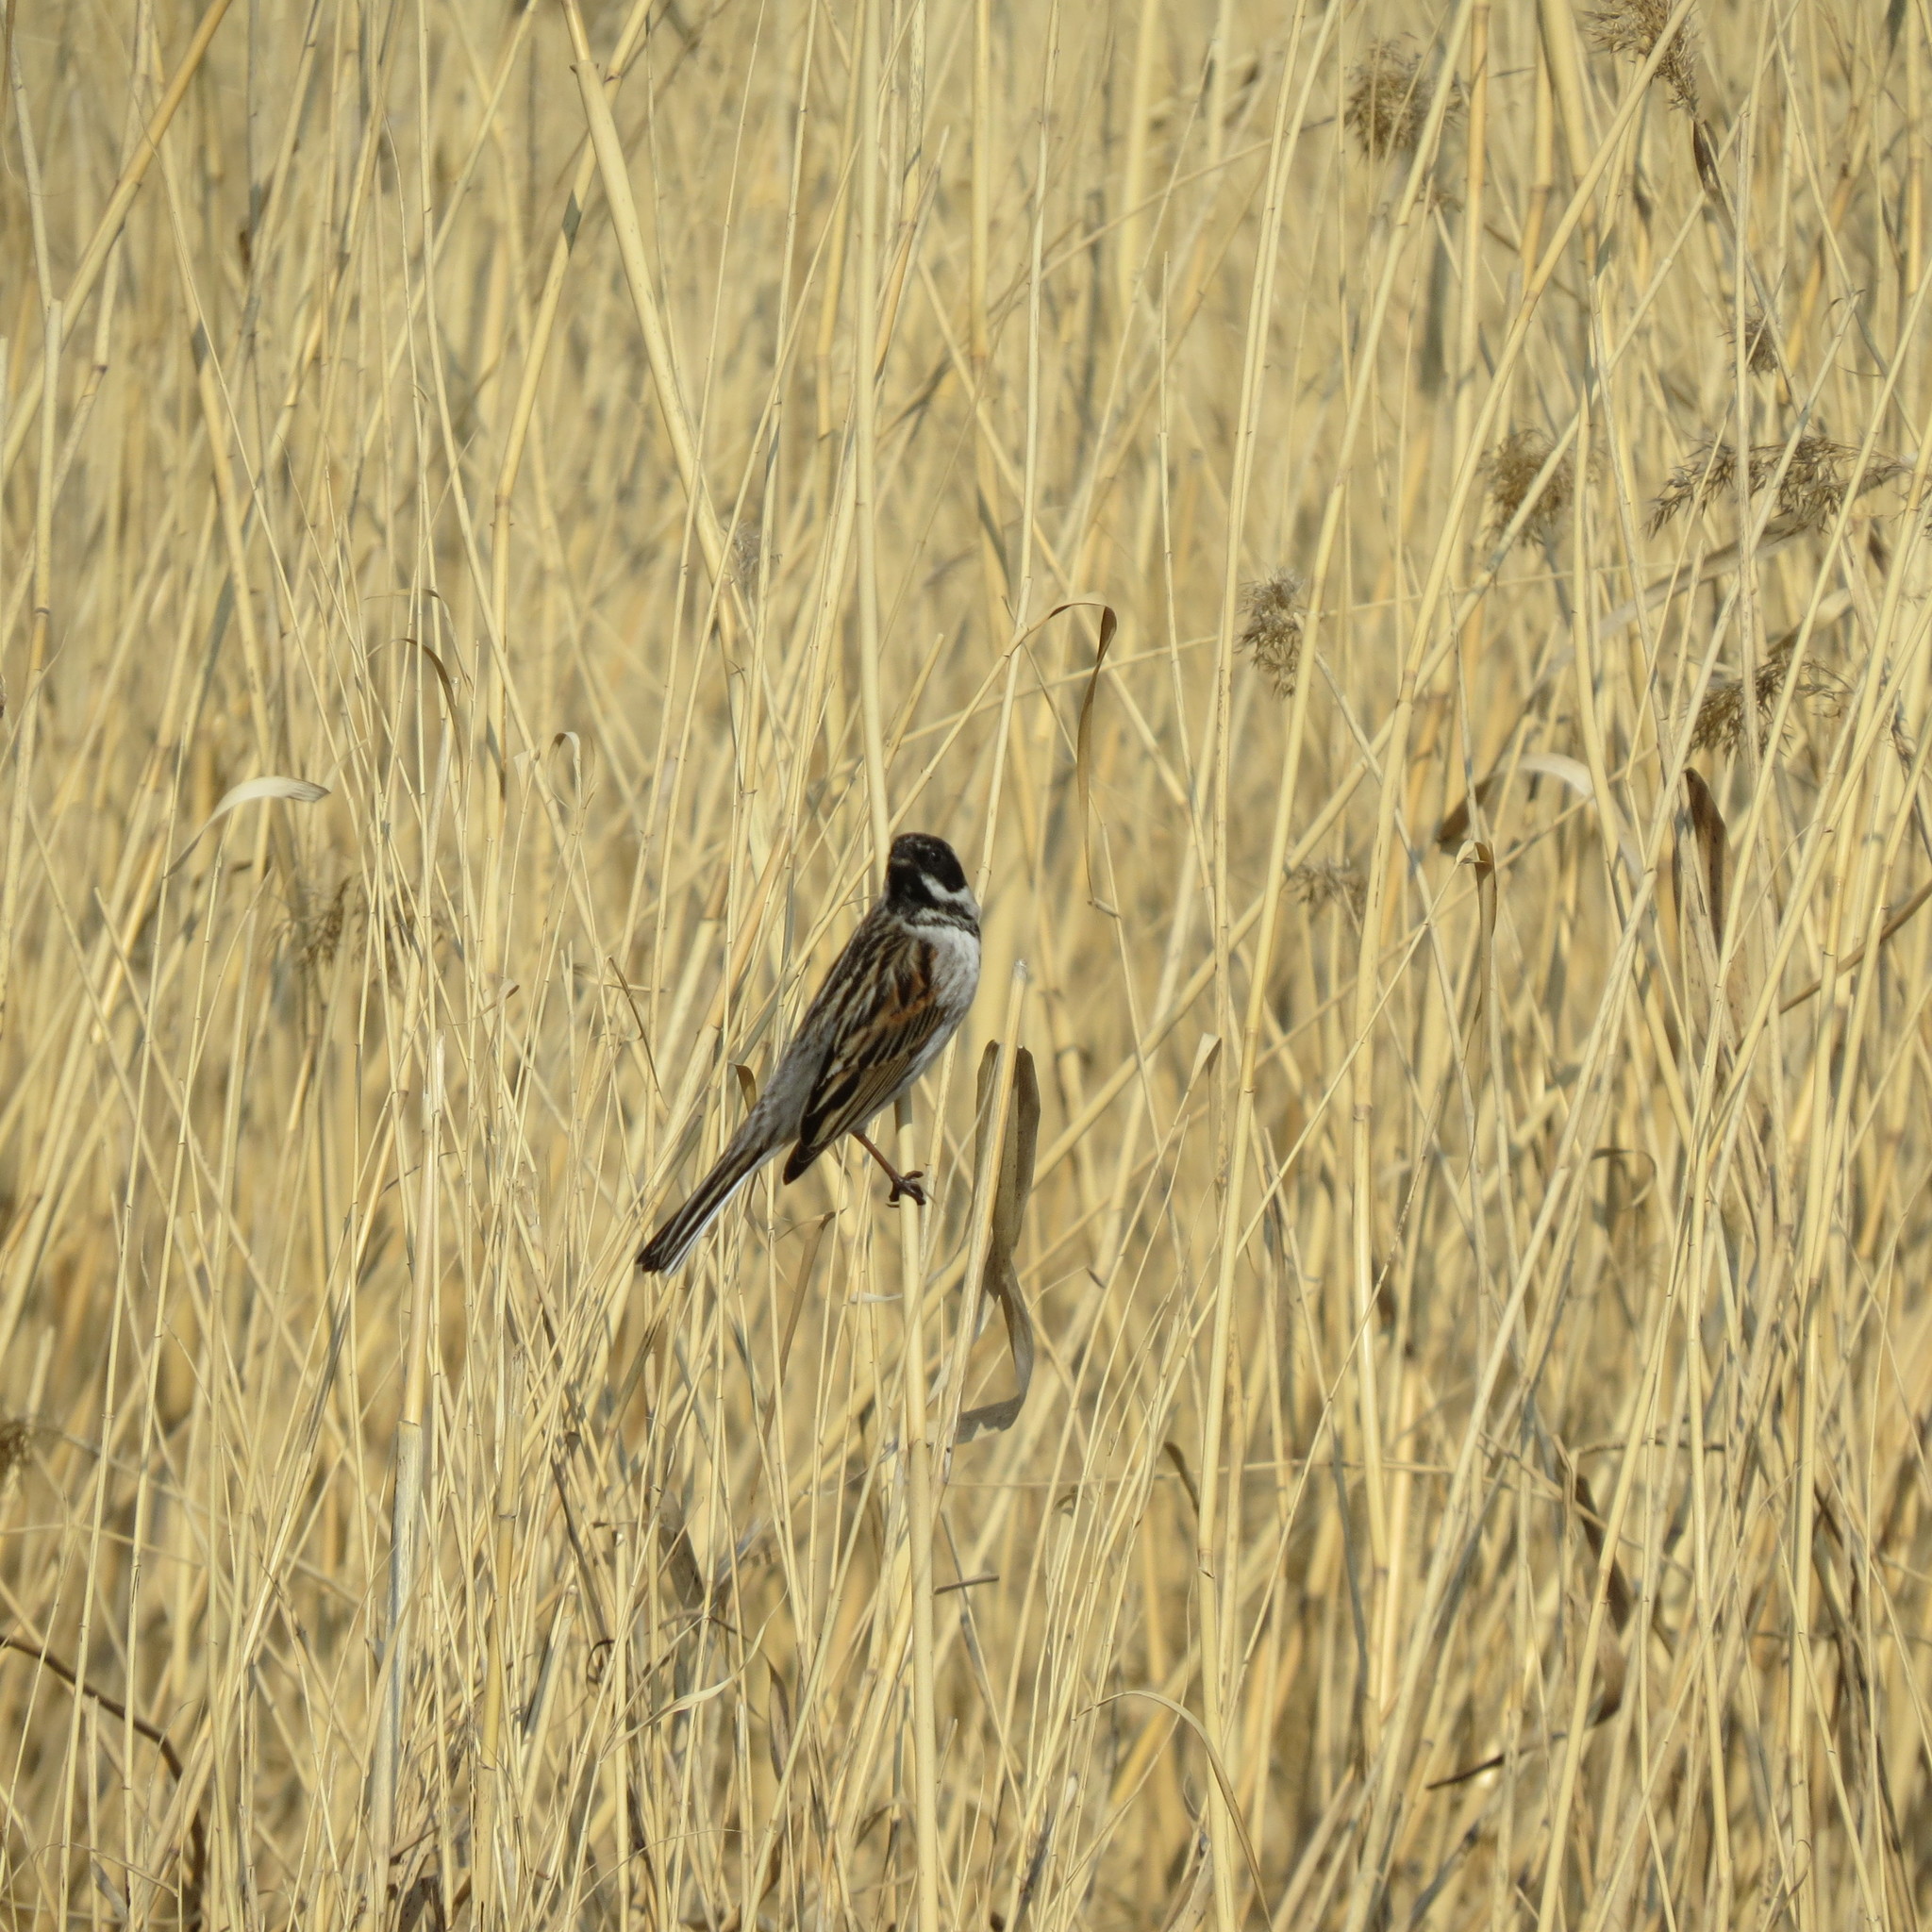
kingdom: Animalia
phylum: Chordata
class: Aves
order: Passeriformes
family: Emberizidae
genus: Emberiza
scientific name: Emberiza schoeniclus
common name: Reed bunting
